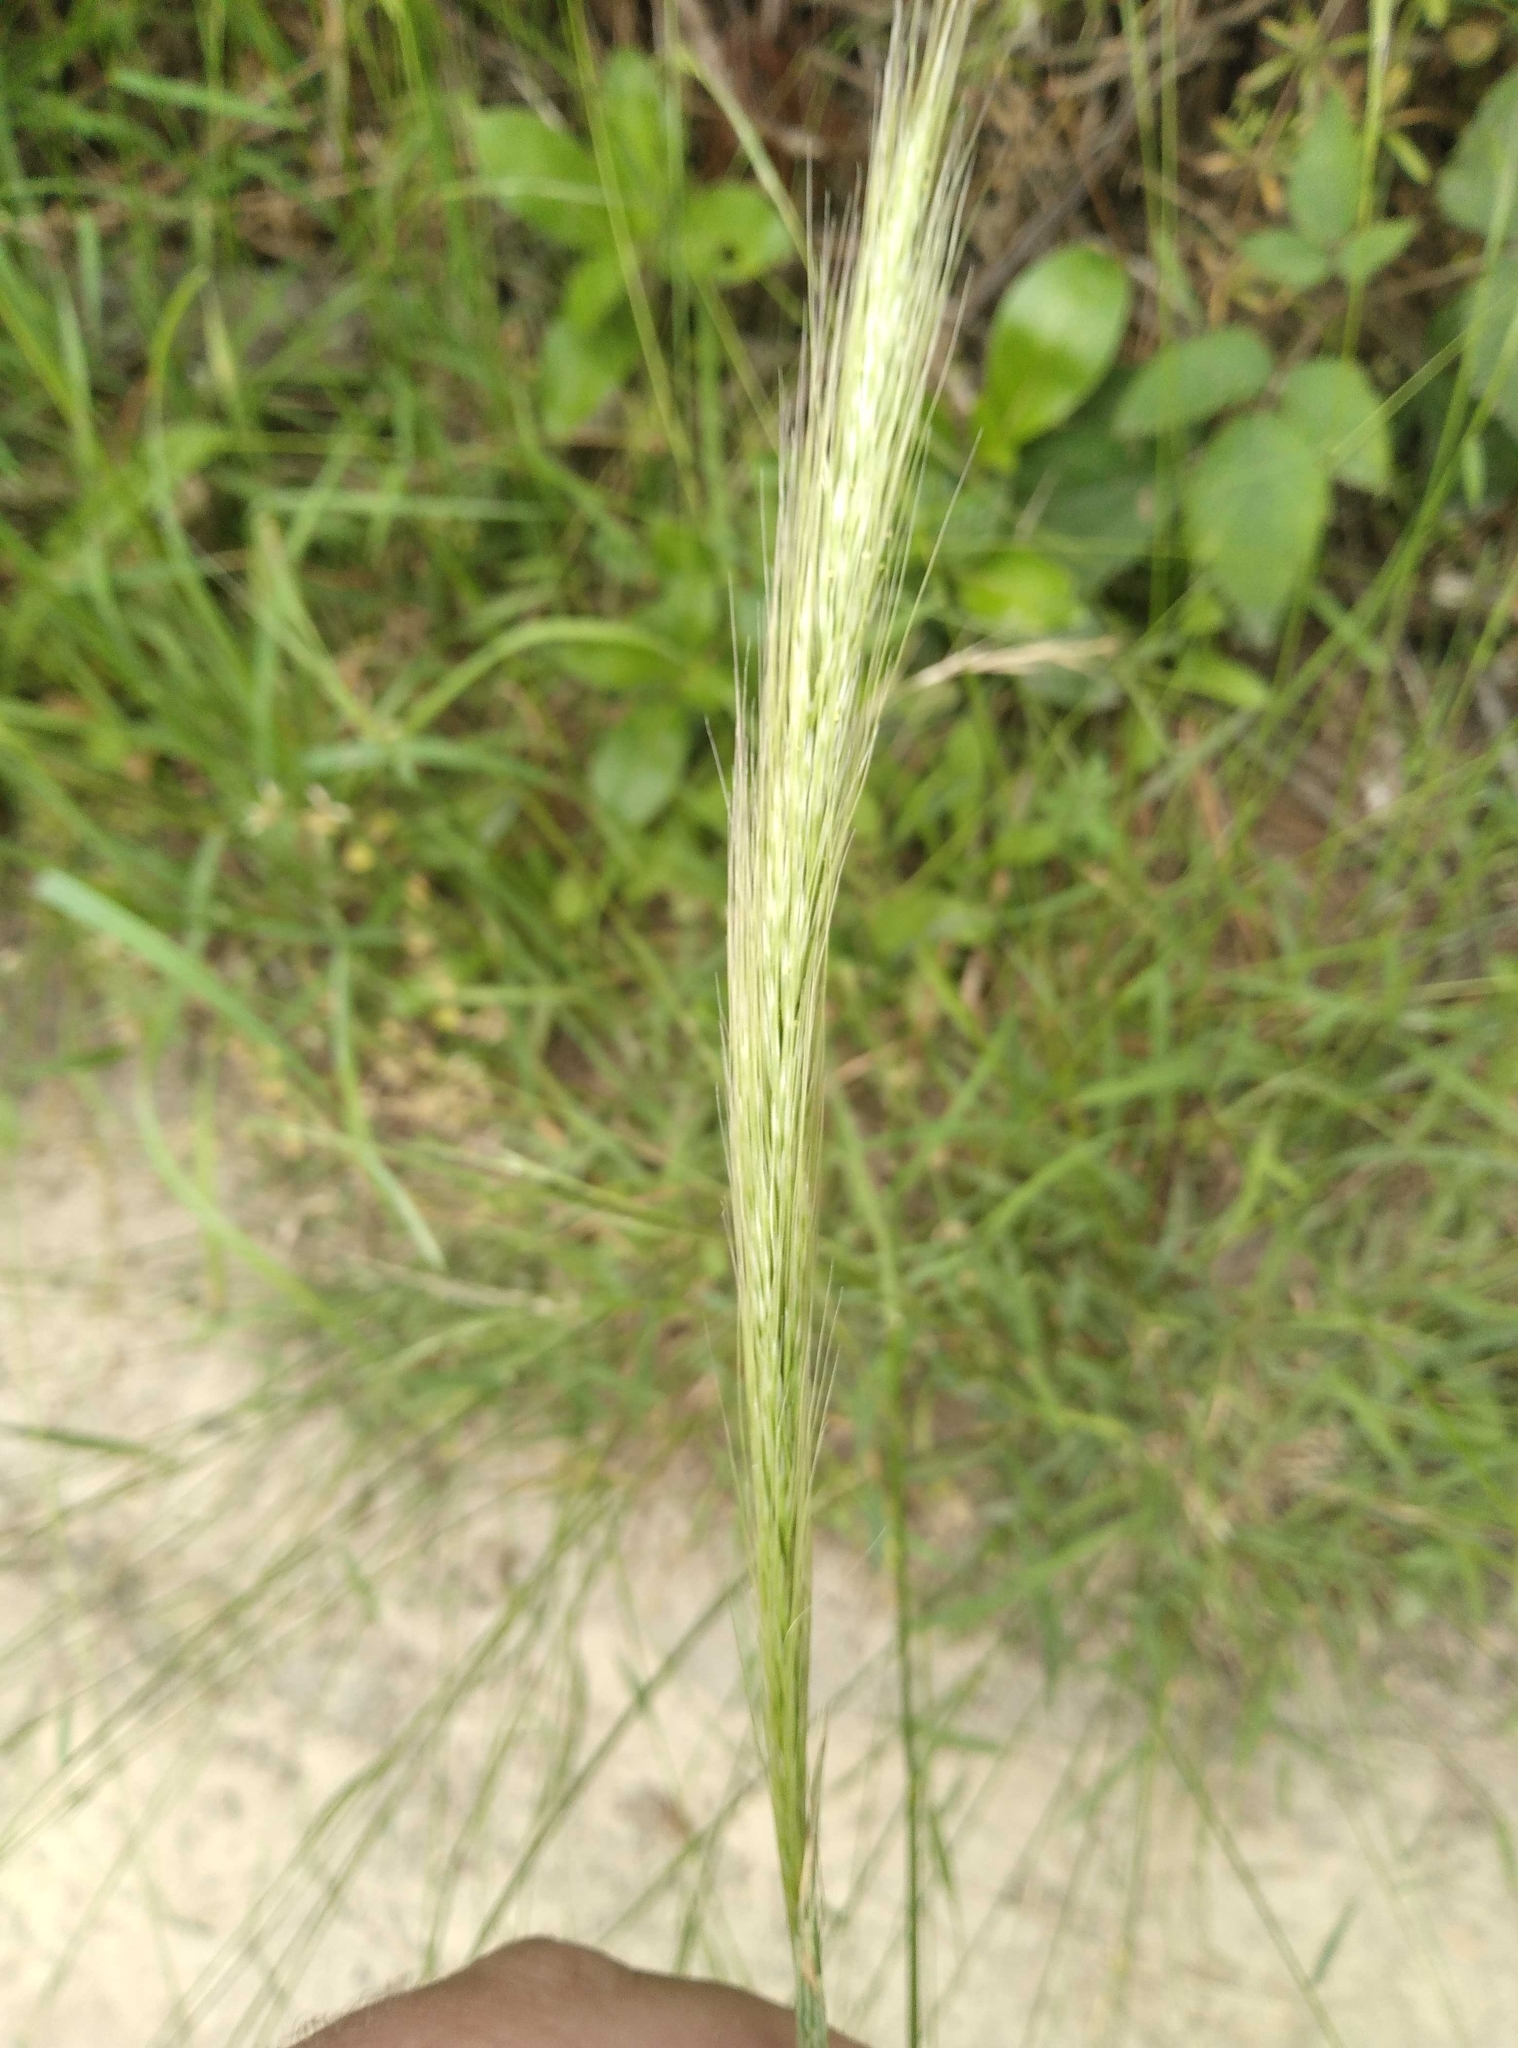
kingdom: Plantae
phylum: Tracheophyta
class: Liliopsida
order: Poales
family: Poaceae
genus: Dichelachne
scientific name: Dichelachne crinita
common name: Clovenfoot plumegrass
